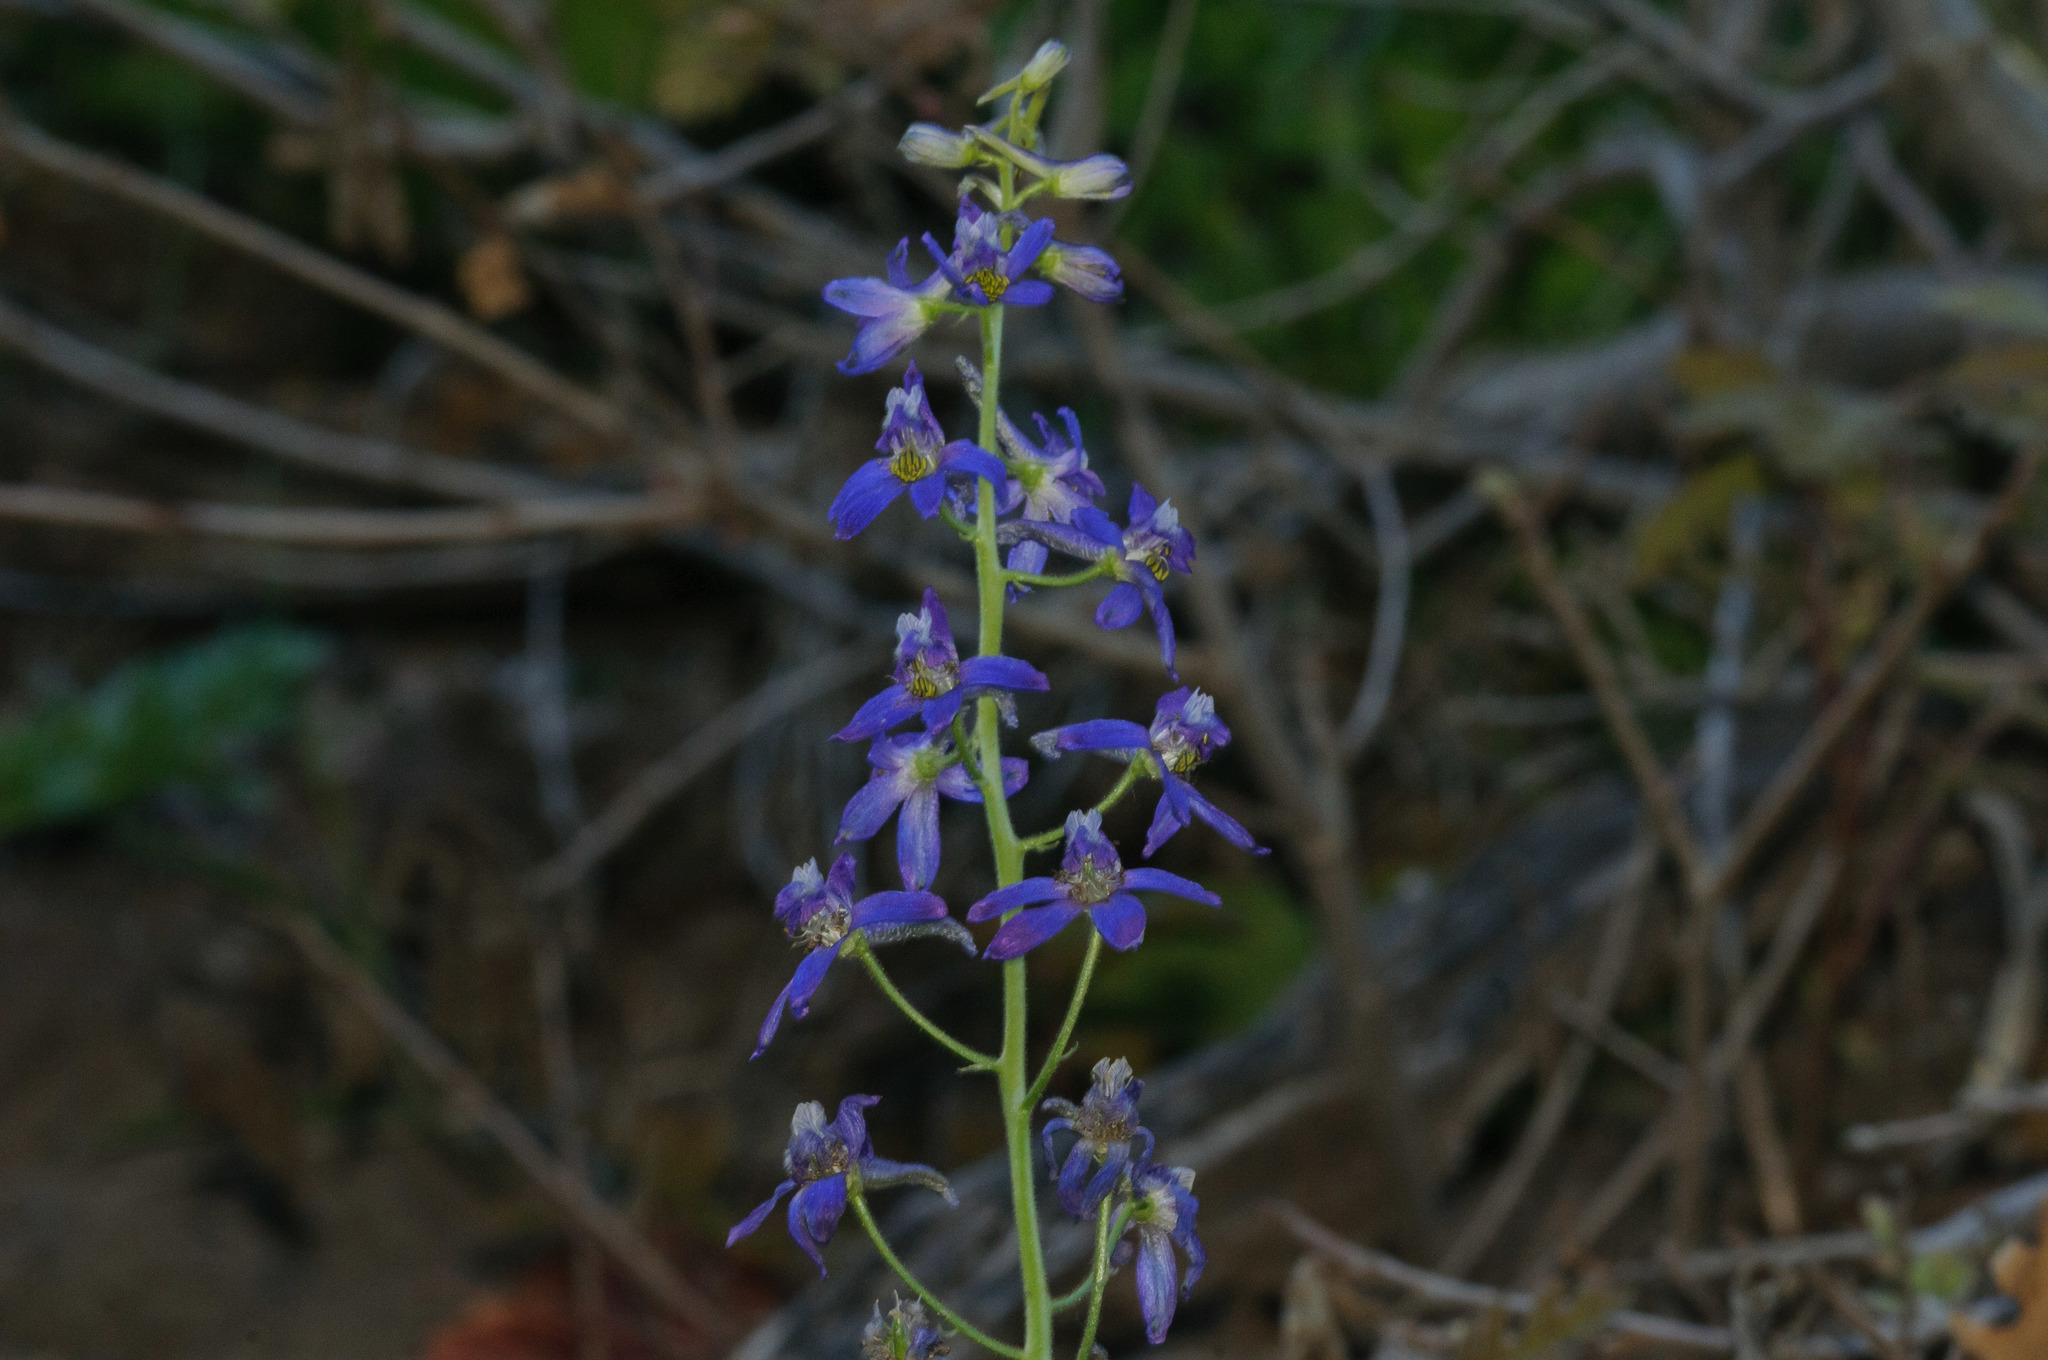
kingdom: Plantae
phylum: Tracheophyta
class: Magnoliopsida
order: Ranunculales
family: Ranunculaceae
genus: Delphinium
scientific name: Delphinium nuttallianum
